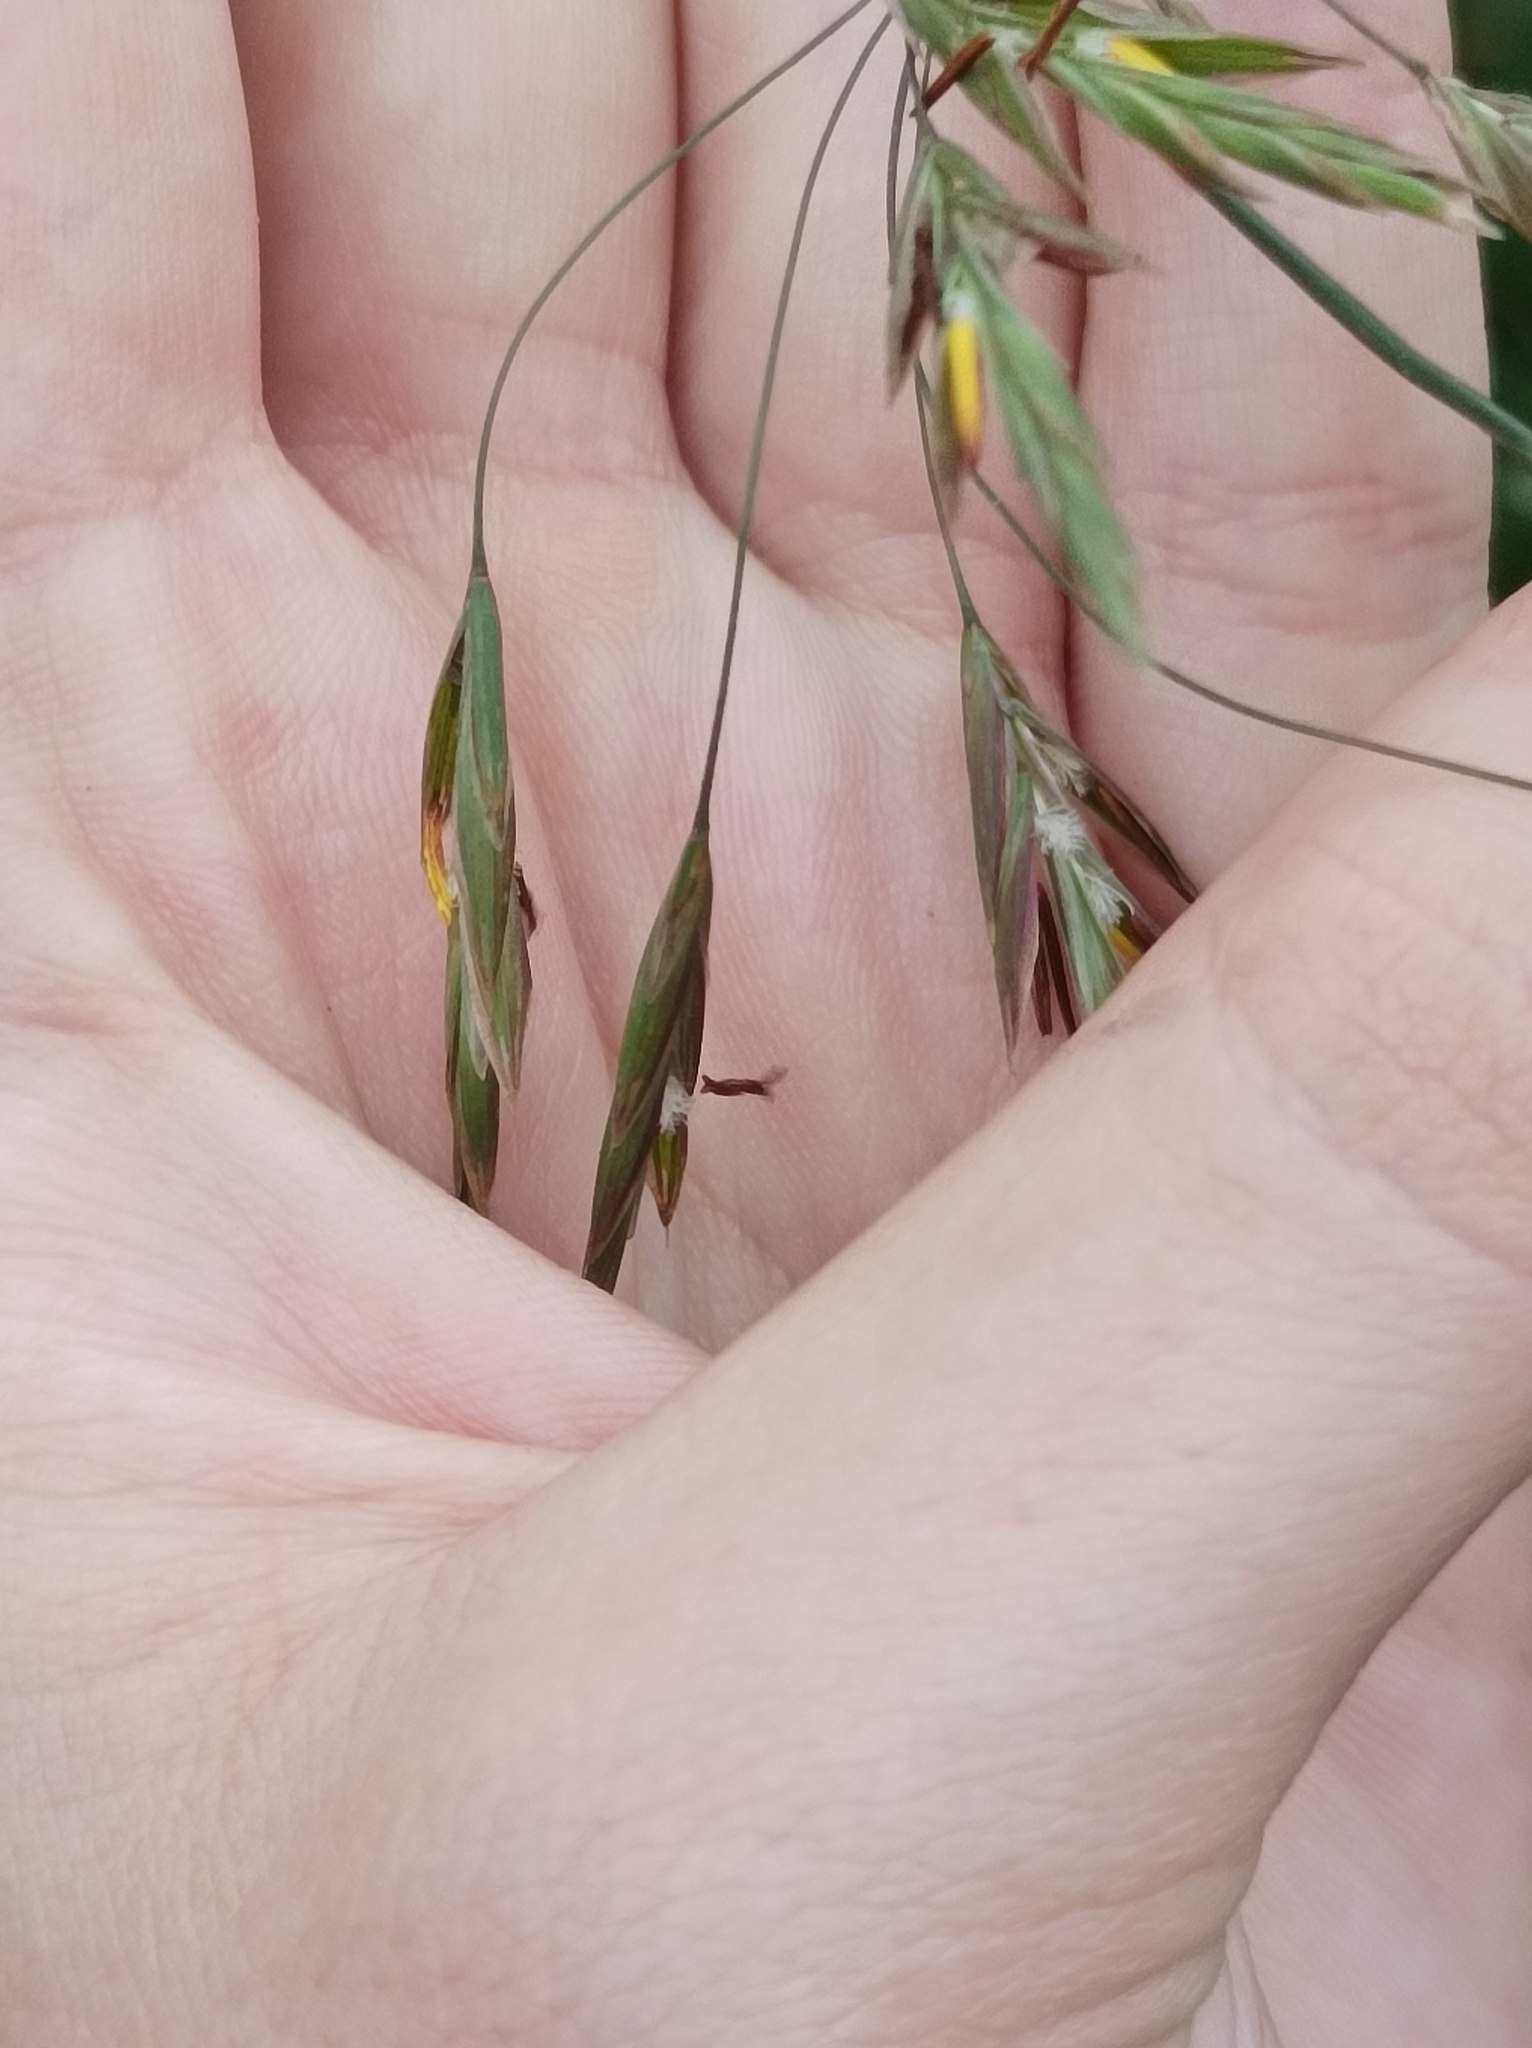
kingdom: Plantae
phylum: Tracheophyta
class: Liliopsida
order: Poales
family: Poaceae
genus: Bromus
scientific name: Bromus inermis
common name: Smooth brome
